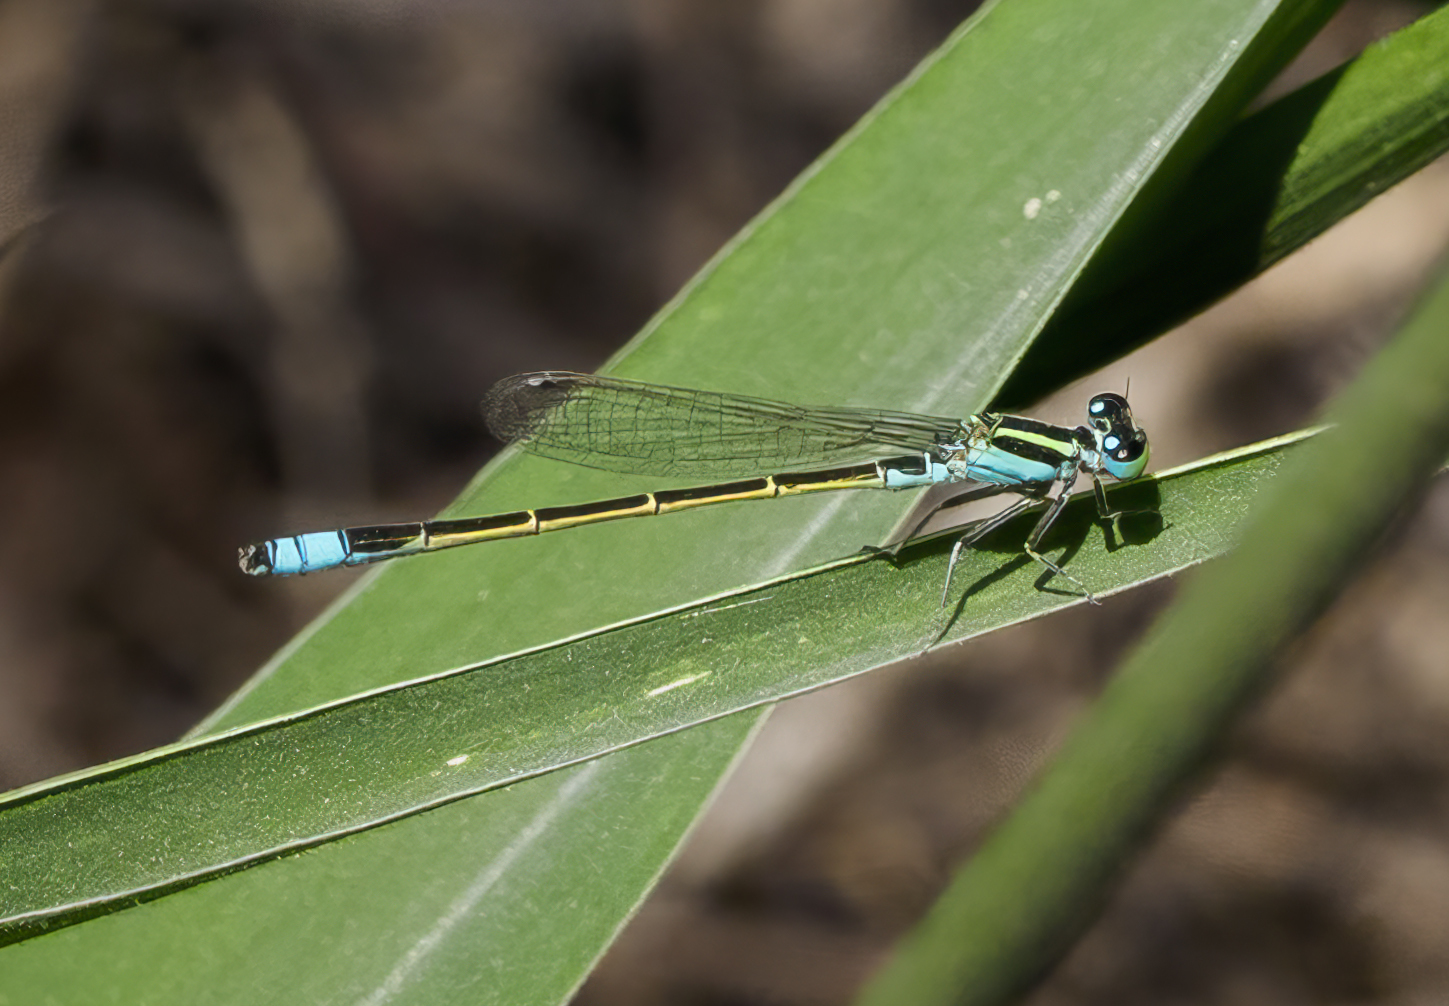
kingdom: Animalia
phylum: Arthropoda
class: Insecta
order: Odonata
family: Coenagrionidae
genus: Ischnura
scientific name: Ischnura fluviatilis
